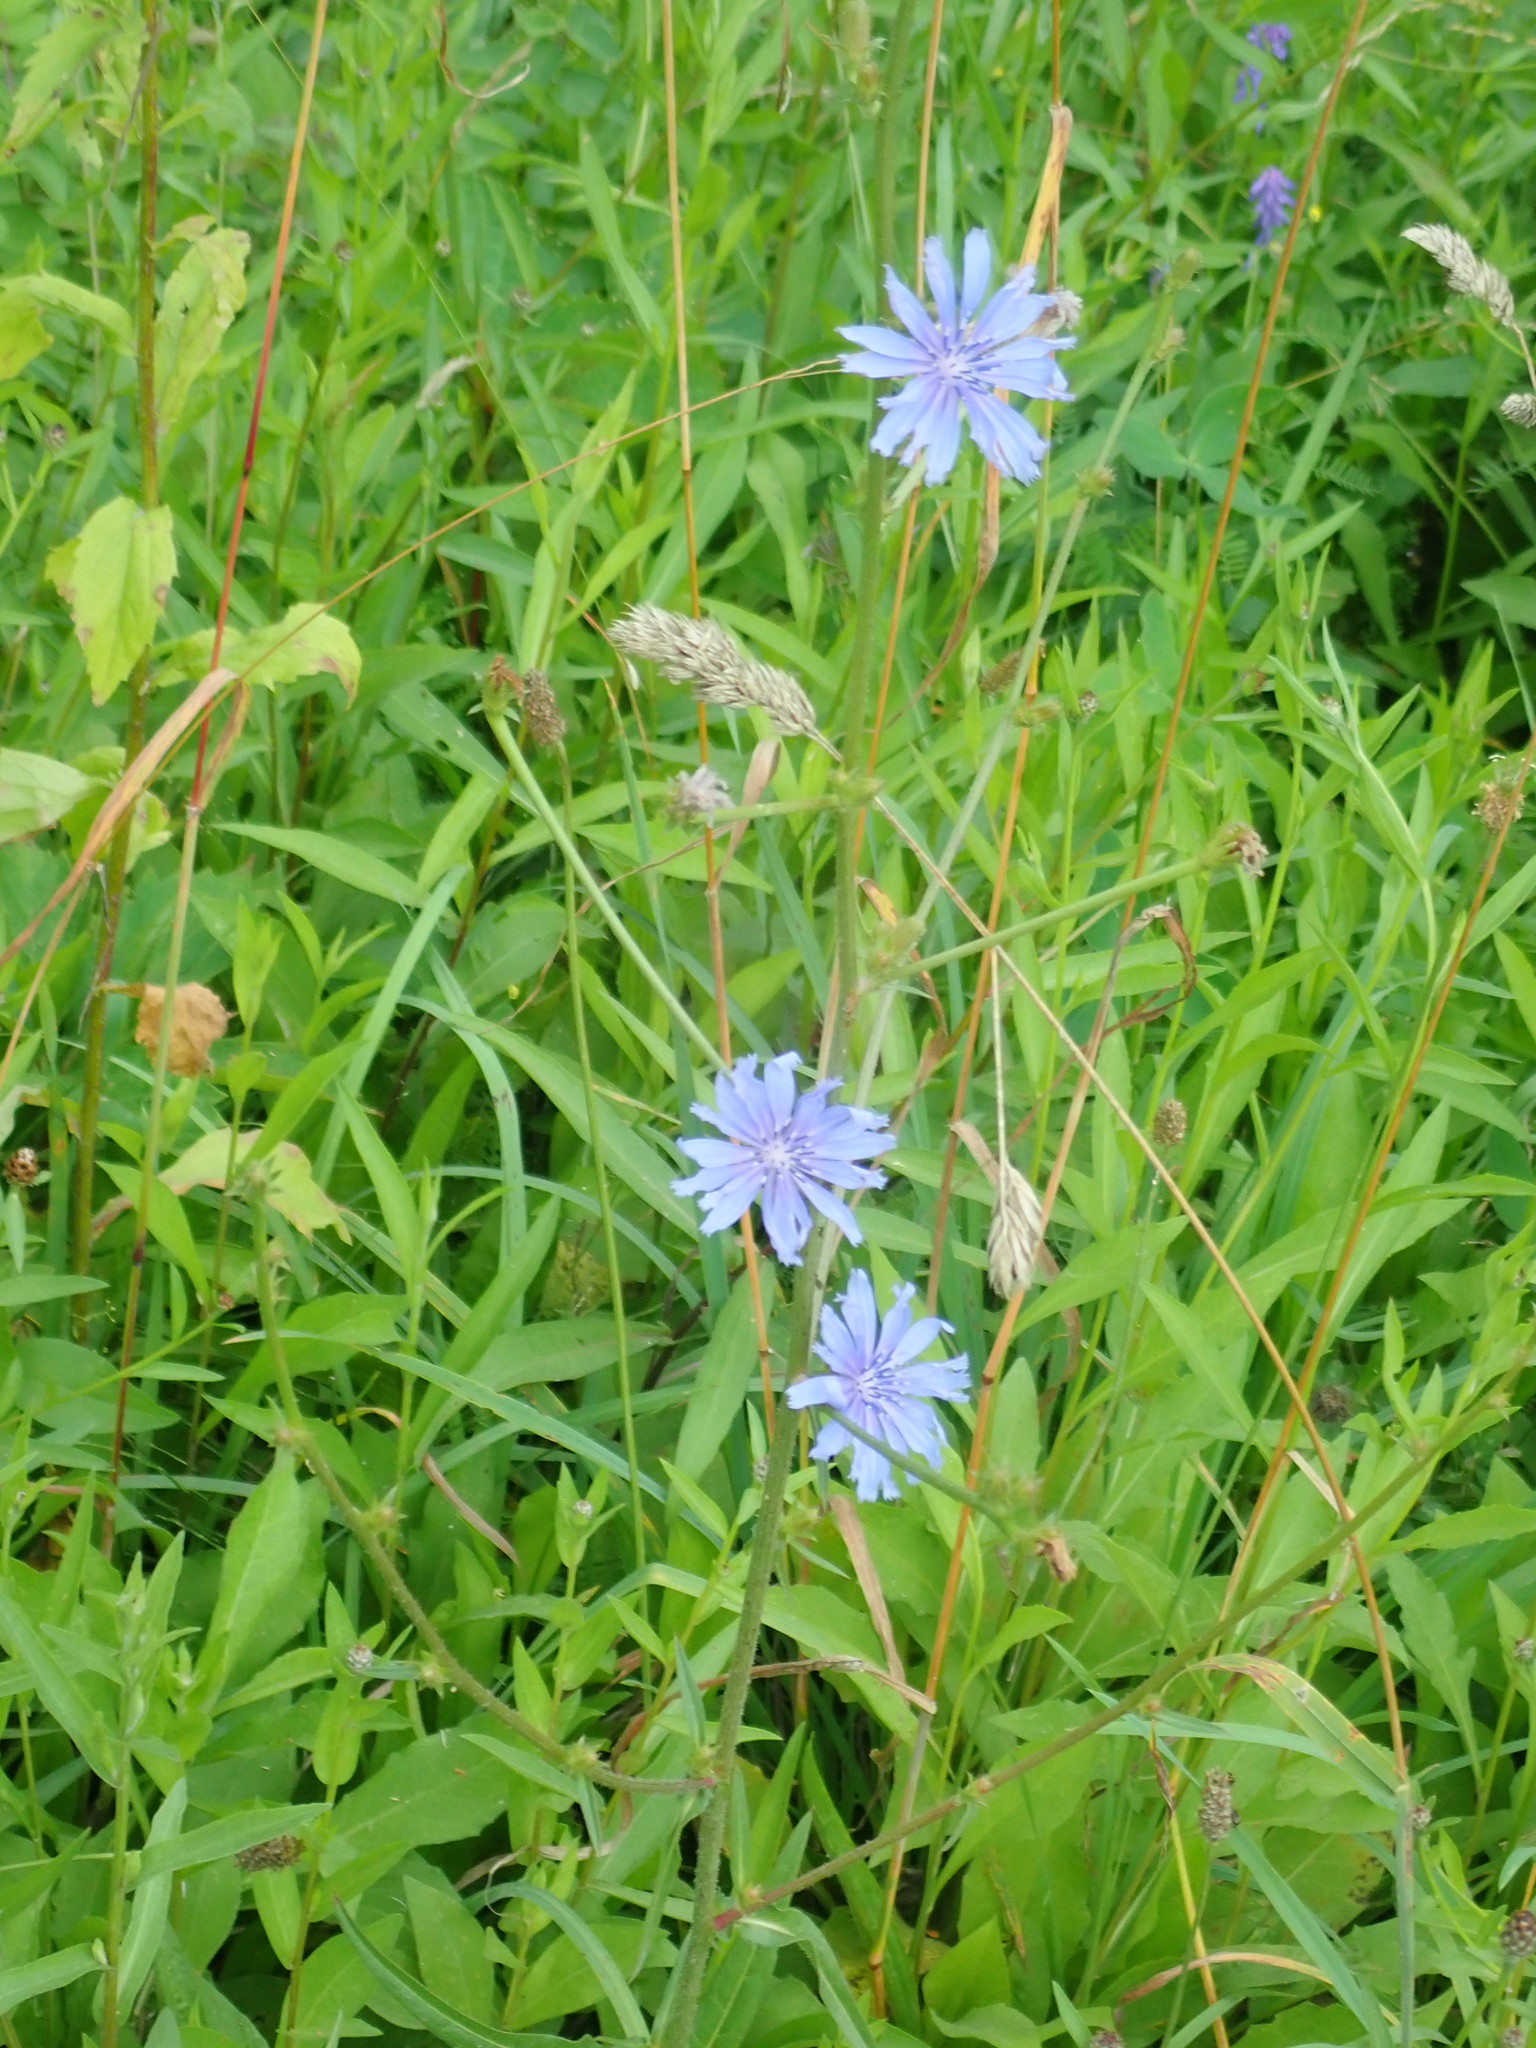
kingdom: Plantae
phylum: Tracheophyta
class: Magnoliopsida
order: Asterales
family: Asteraceae
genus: Cichorium
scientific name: Cichorium intybus
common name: Chicory
